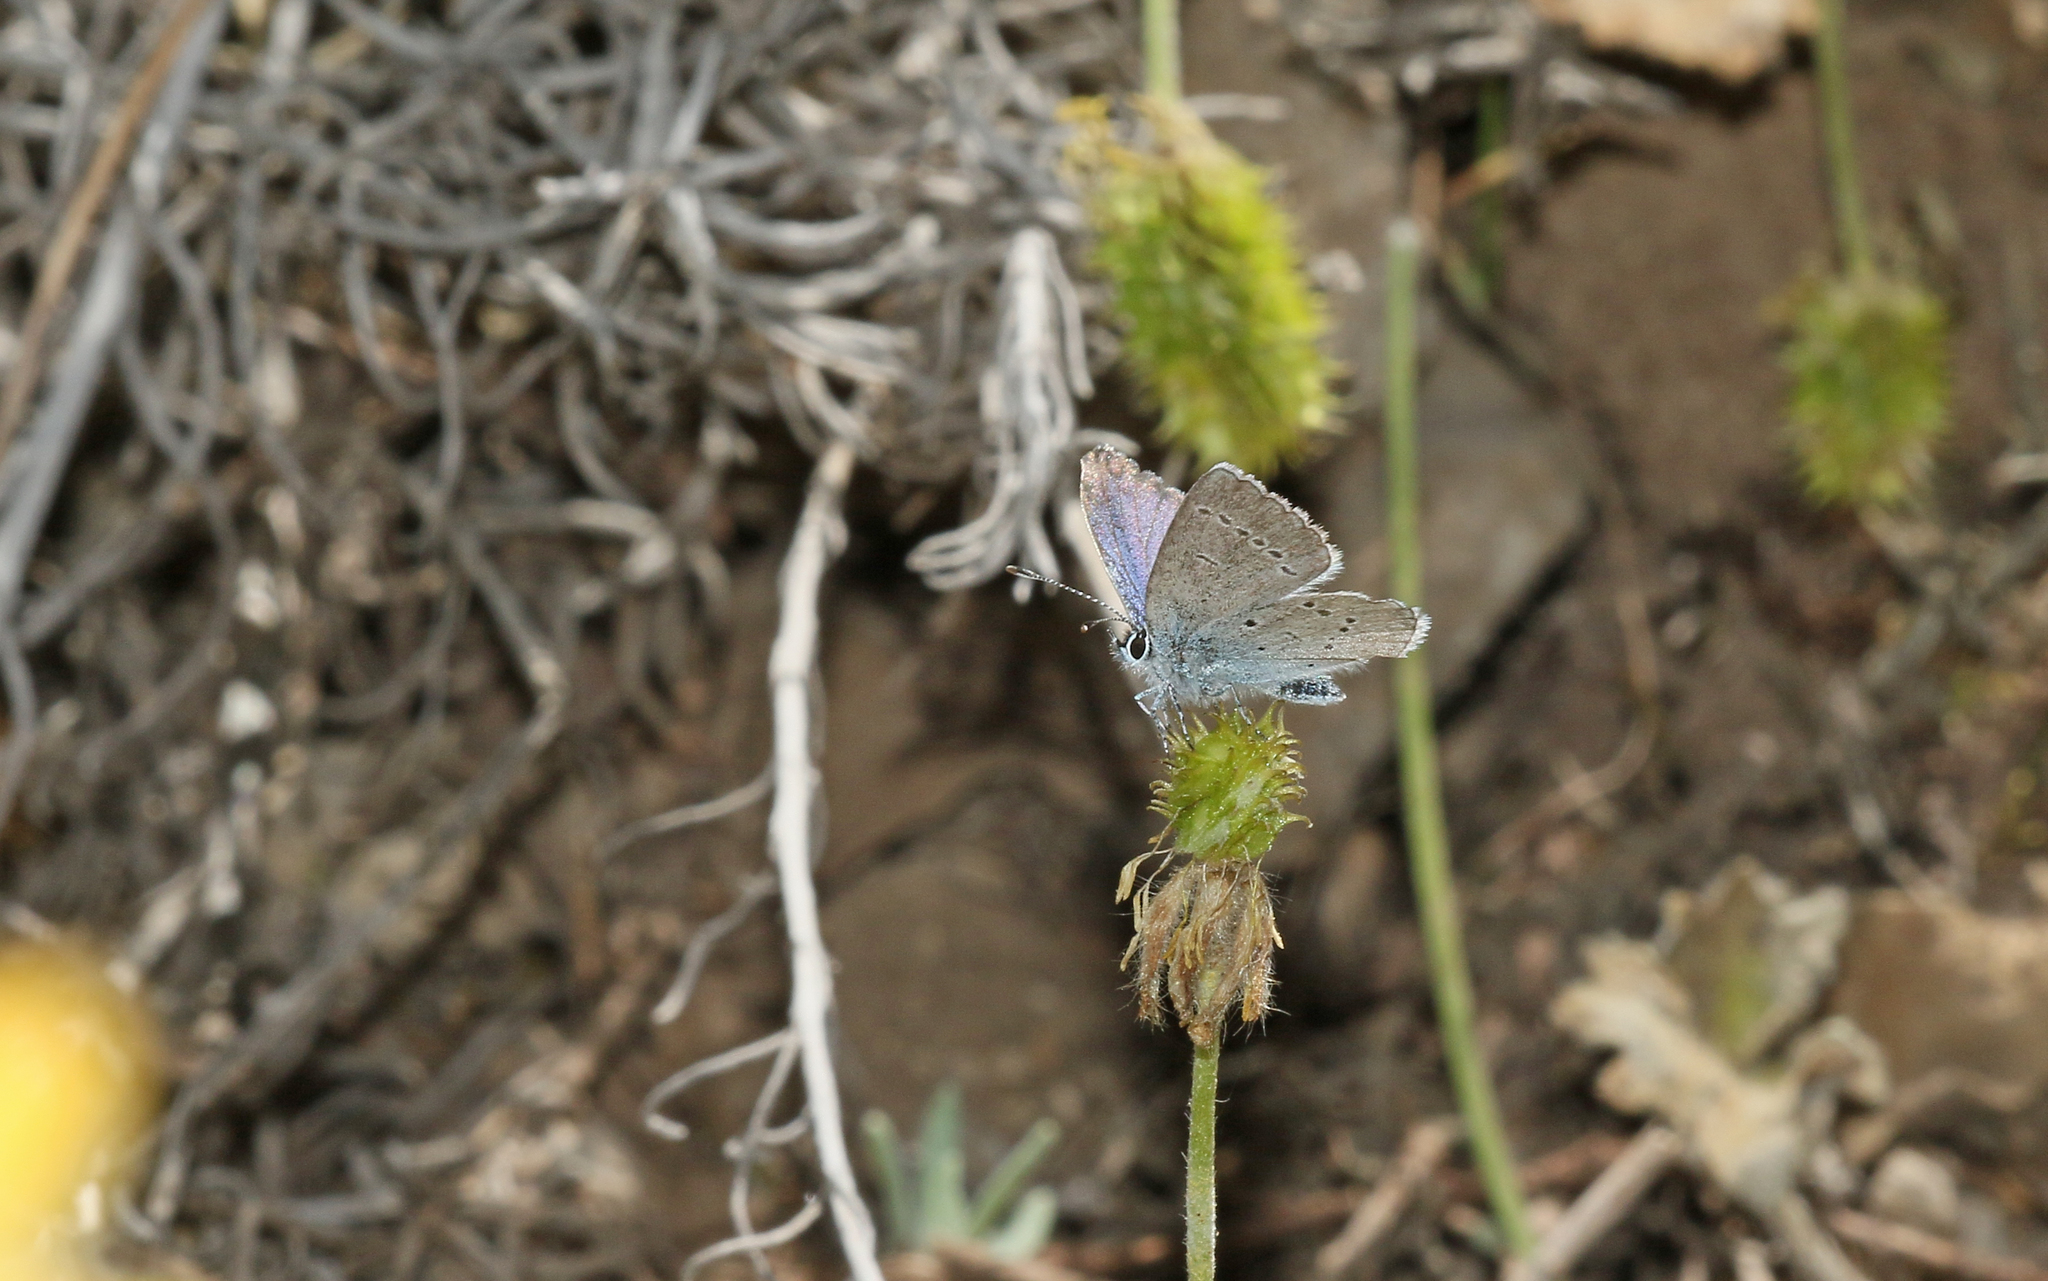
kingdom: Animalia
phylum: Arthropoda
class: Insecta
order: Lepidoptera
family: Lycaenidae
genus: Cupido
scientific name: Cupido lorquinii
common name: Lorquin’s blue
